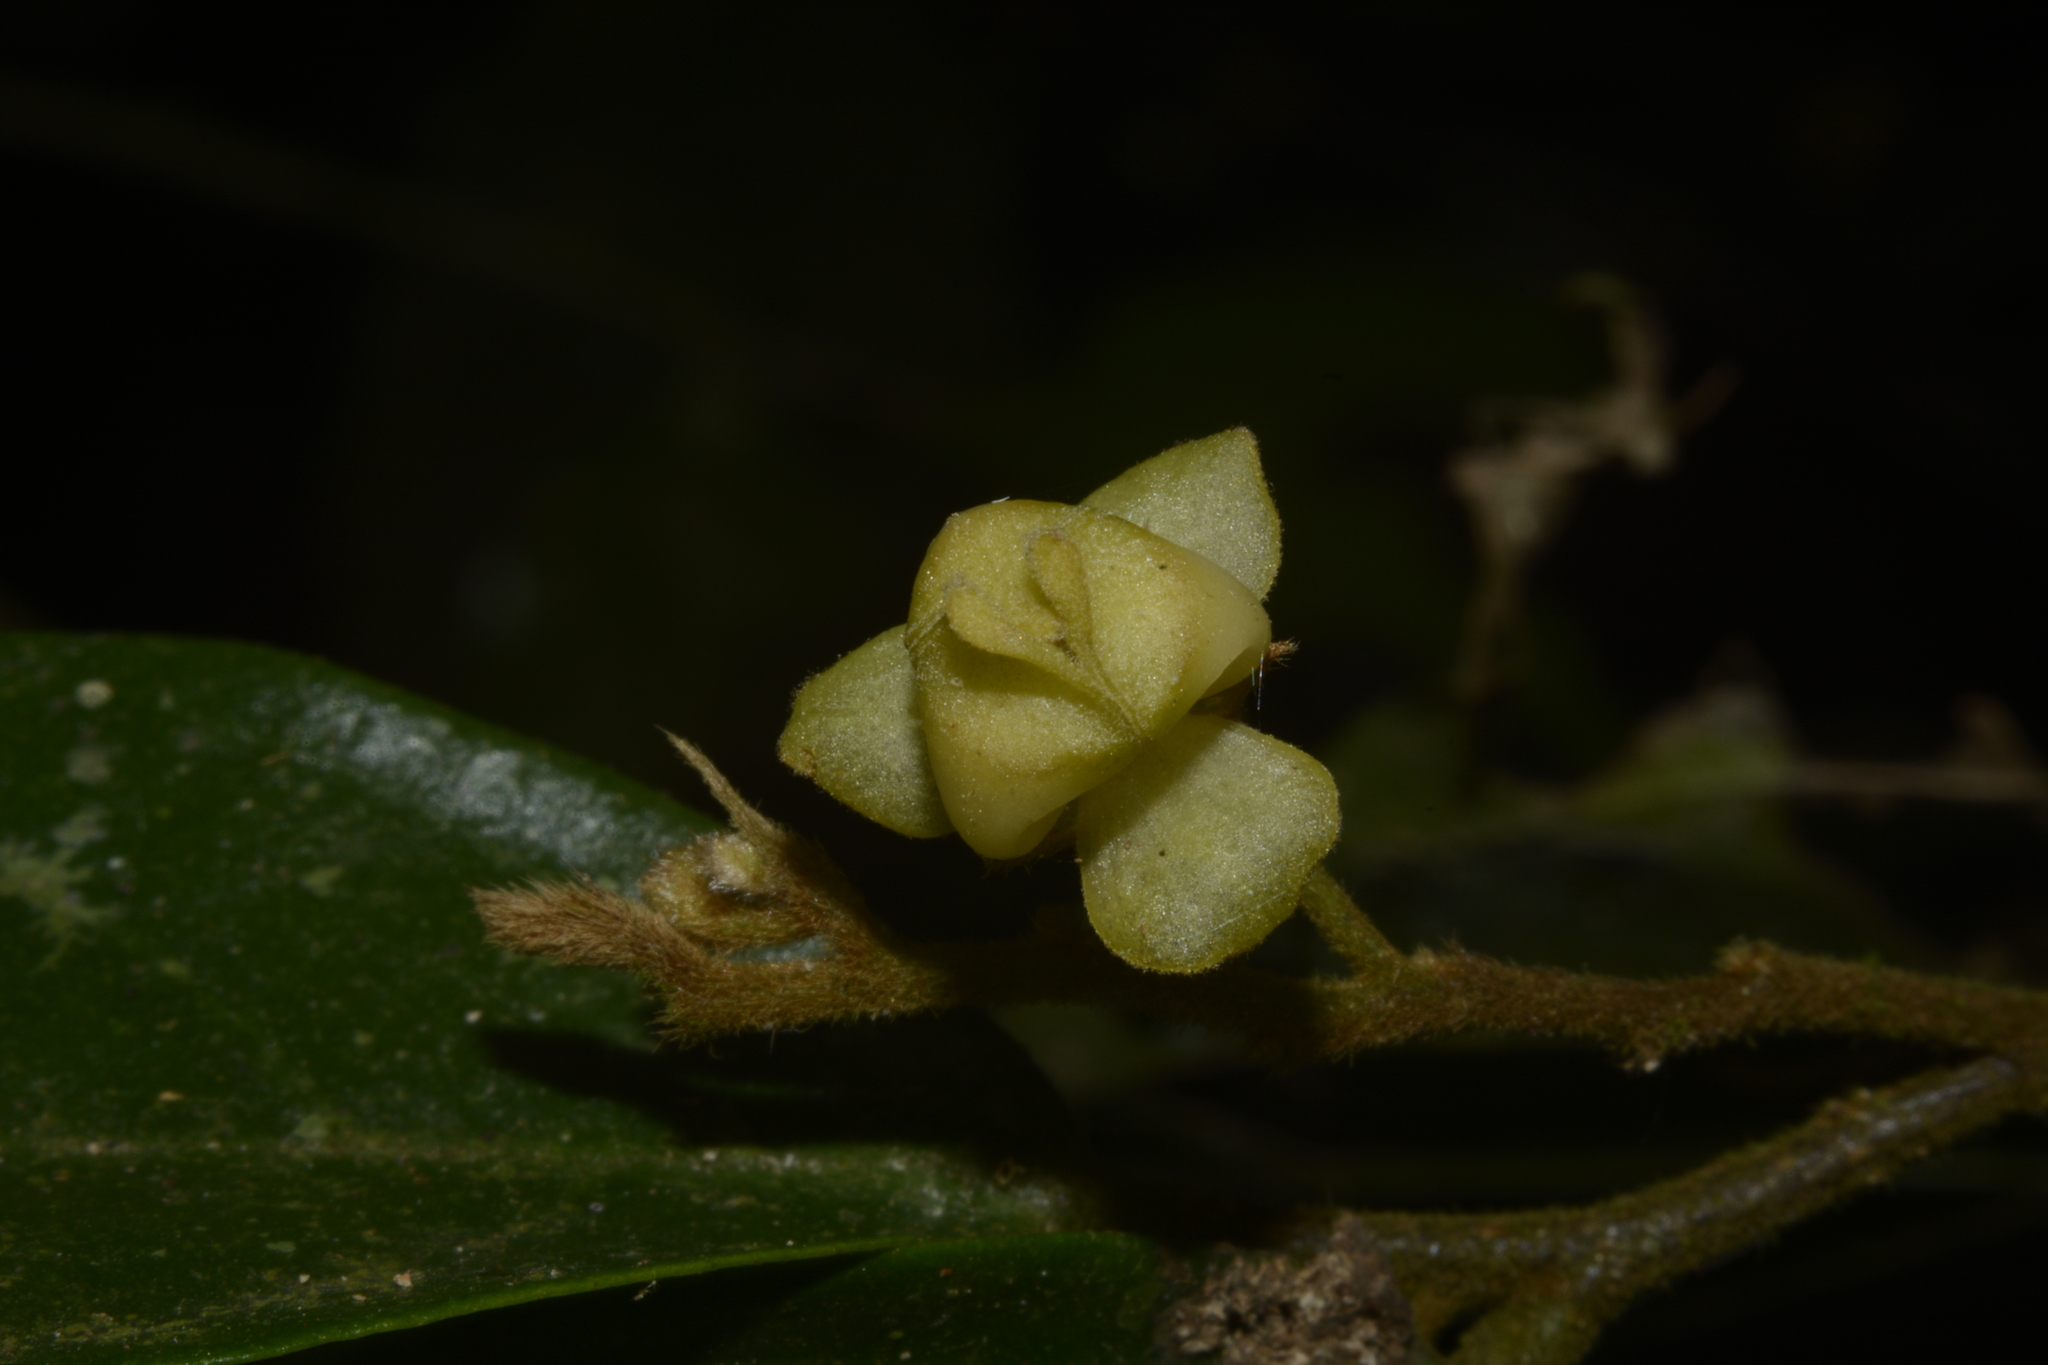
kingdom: Plantae
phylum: Tracheophyta
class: Magnoliopsida
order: Magnoliales
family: Annonaceae
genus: Orophea
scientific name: Orophea erythrocarpa
